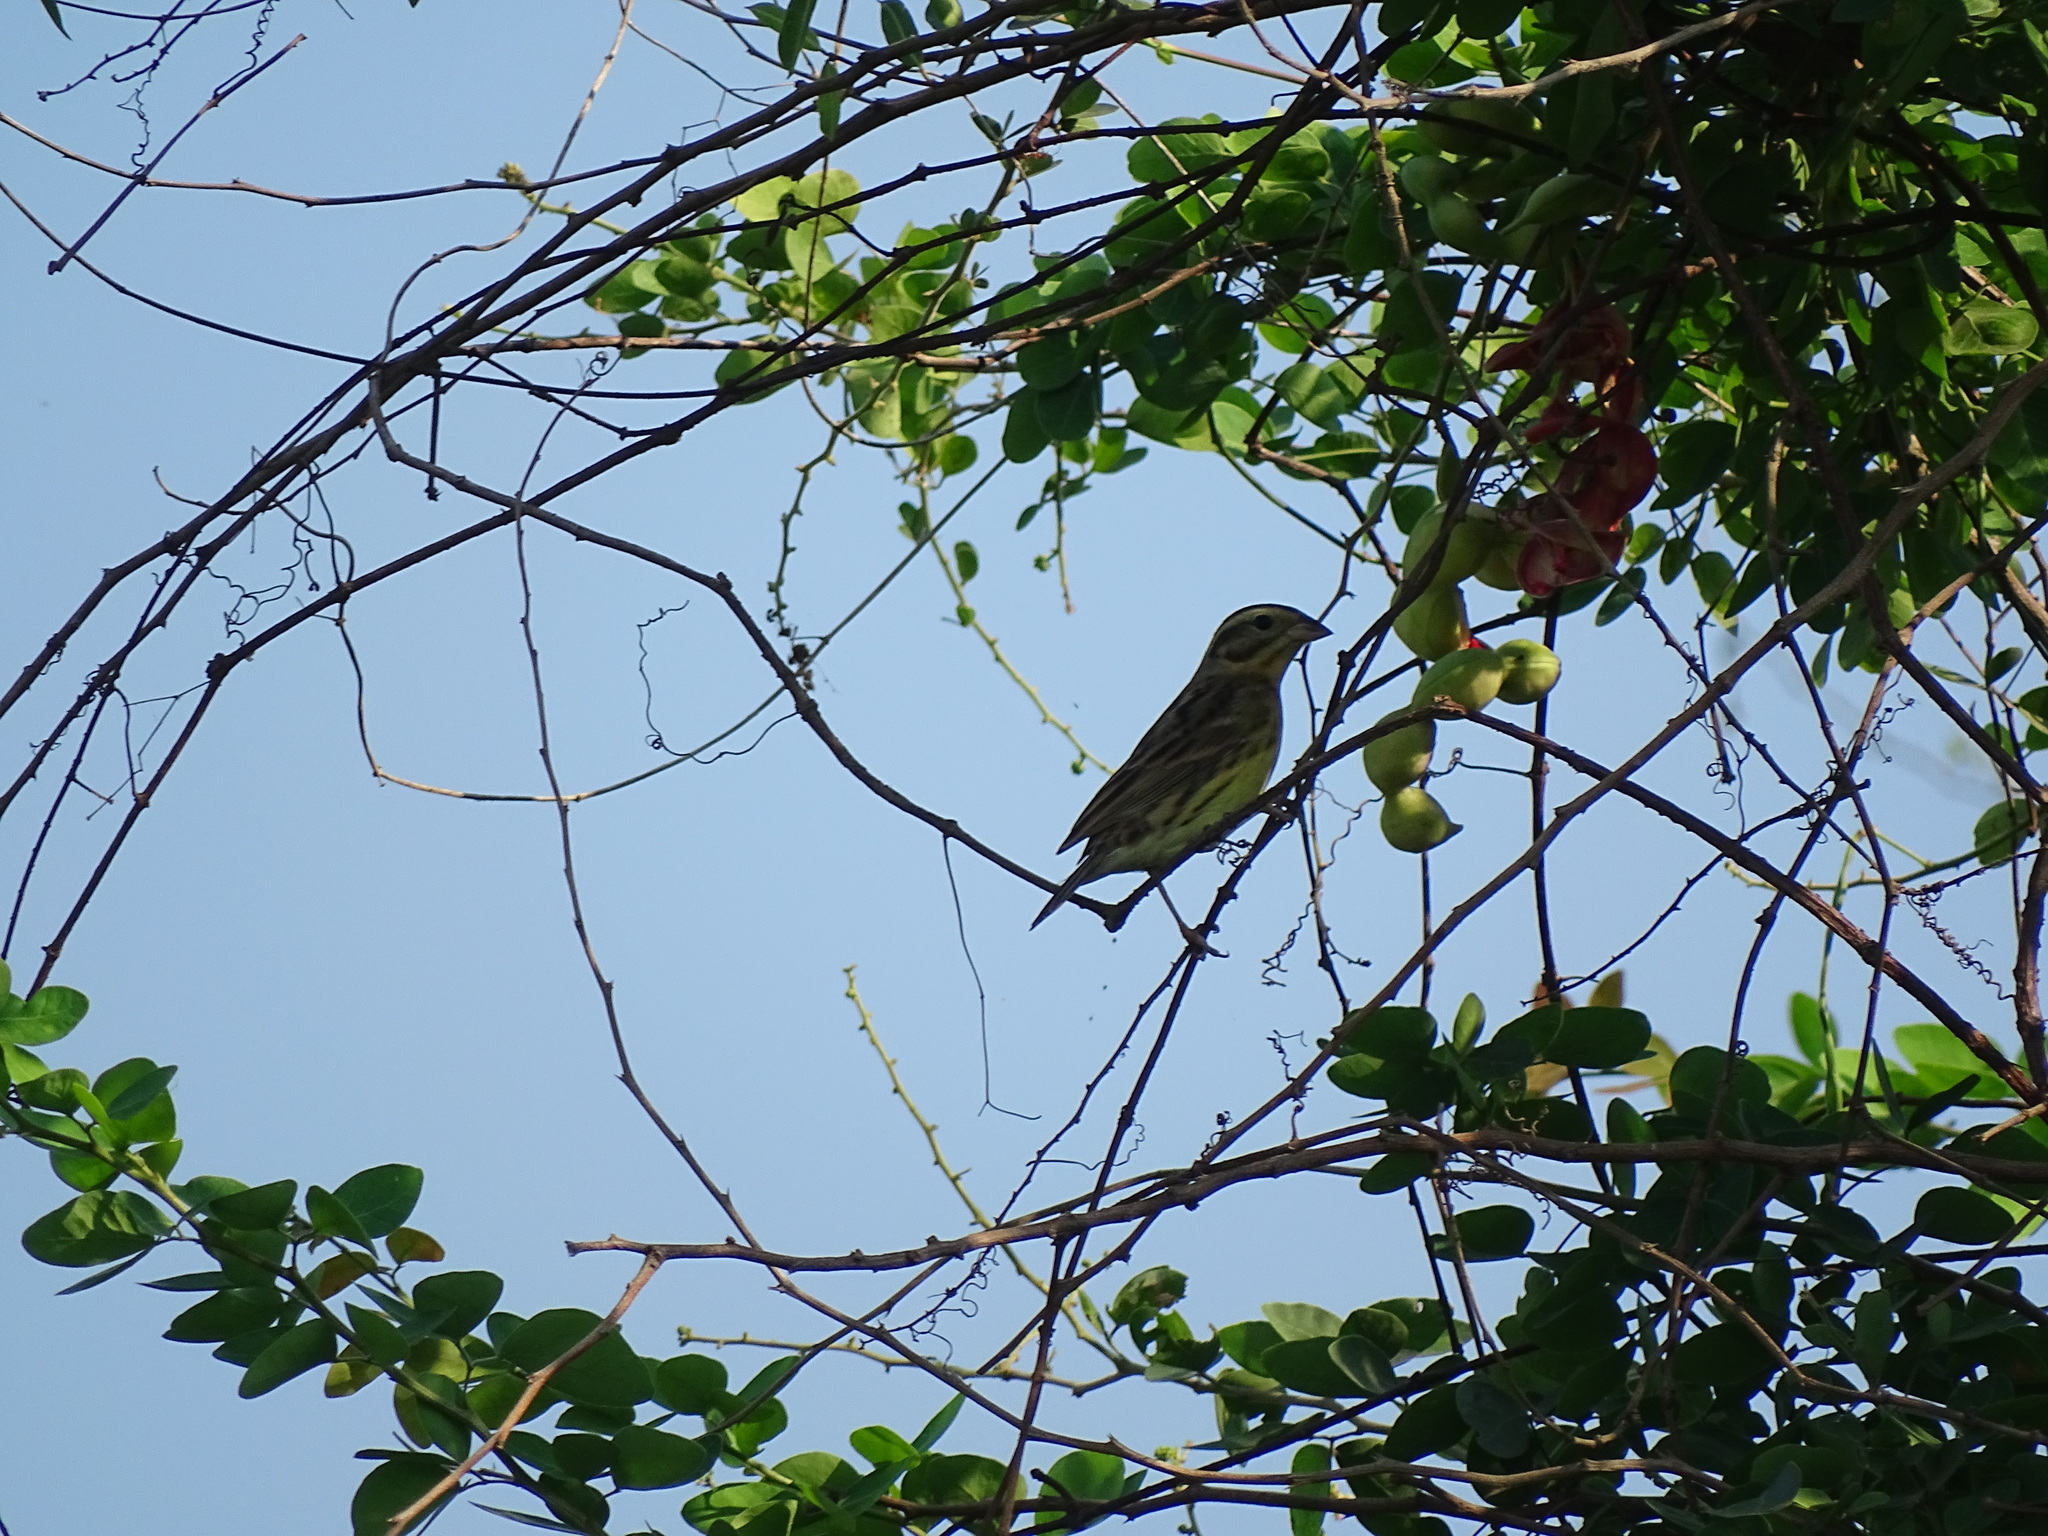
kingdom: Animalia
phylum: Chordata
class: Aves
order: Passeriformes
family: Emberizidae
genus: Emberiza
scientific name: Emberiza aureola
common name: Yellow-breasted bunting
